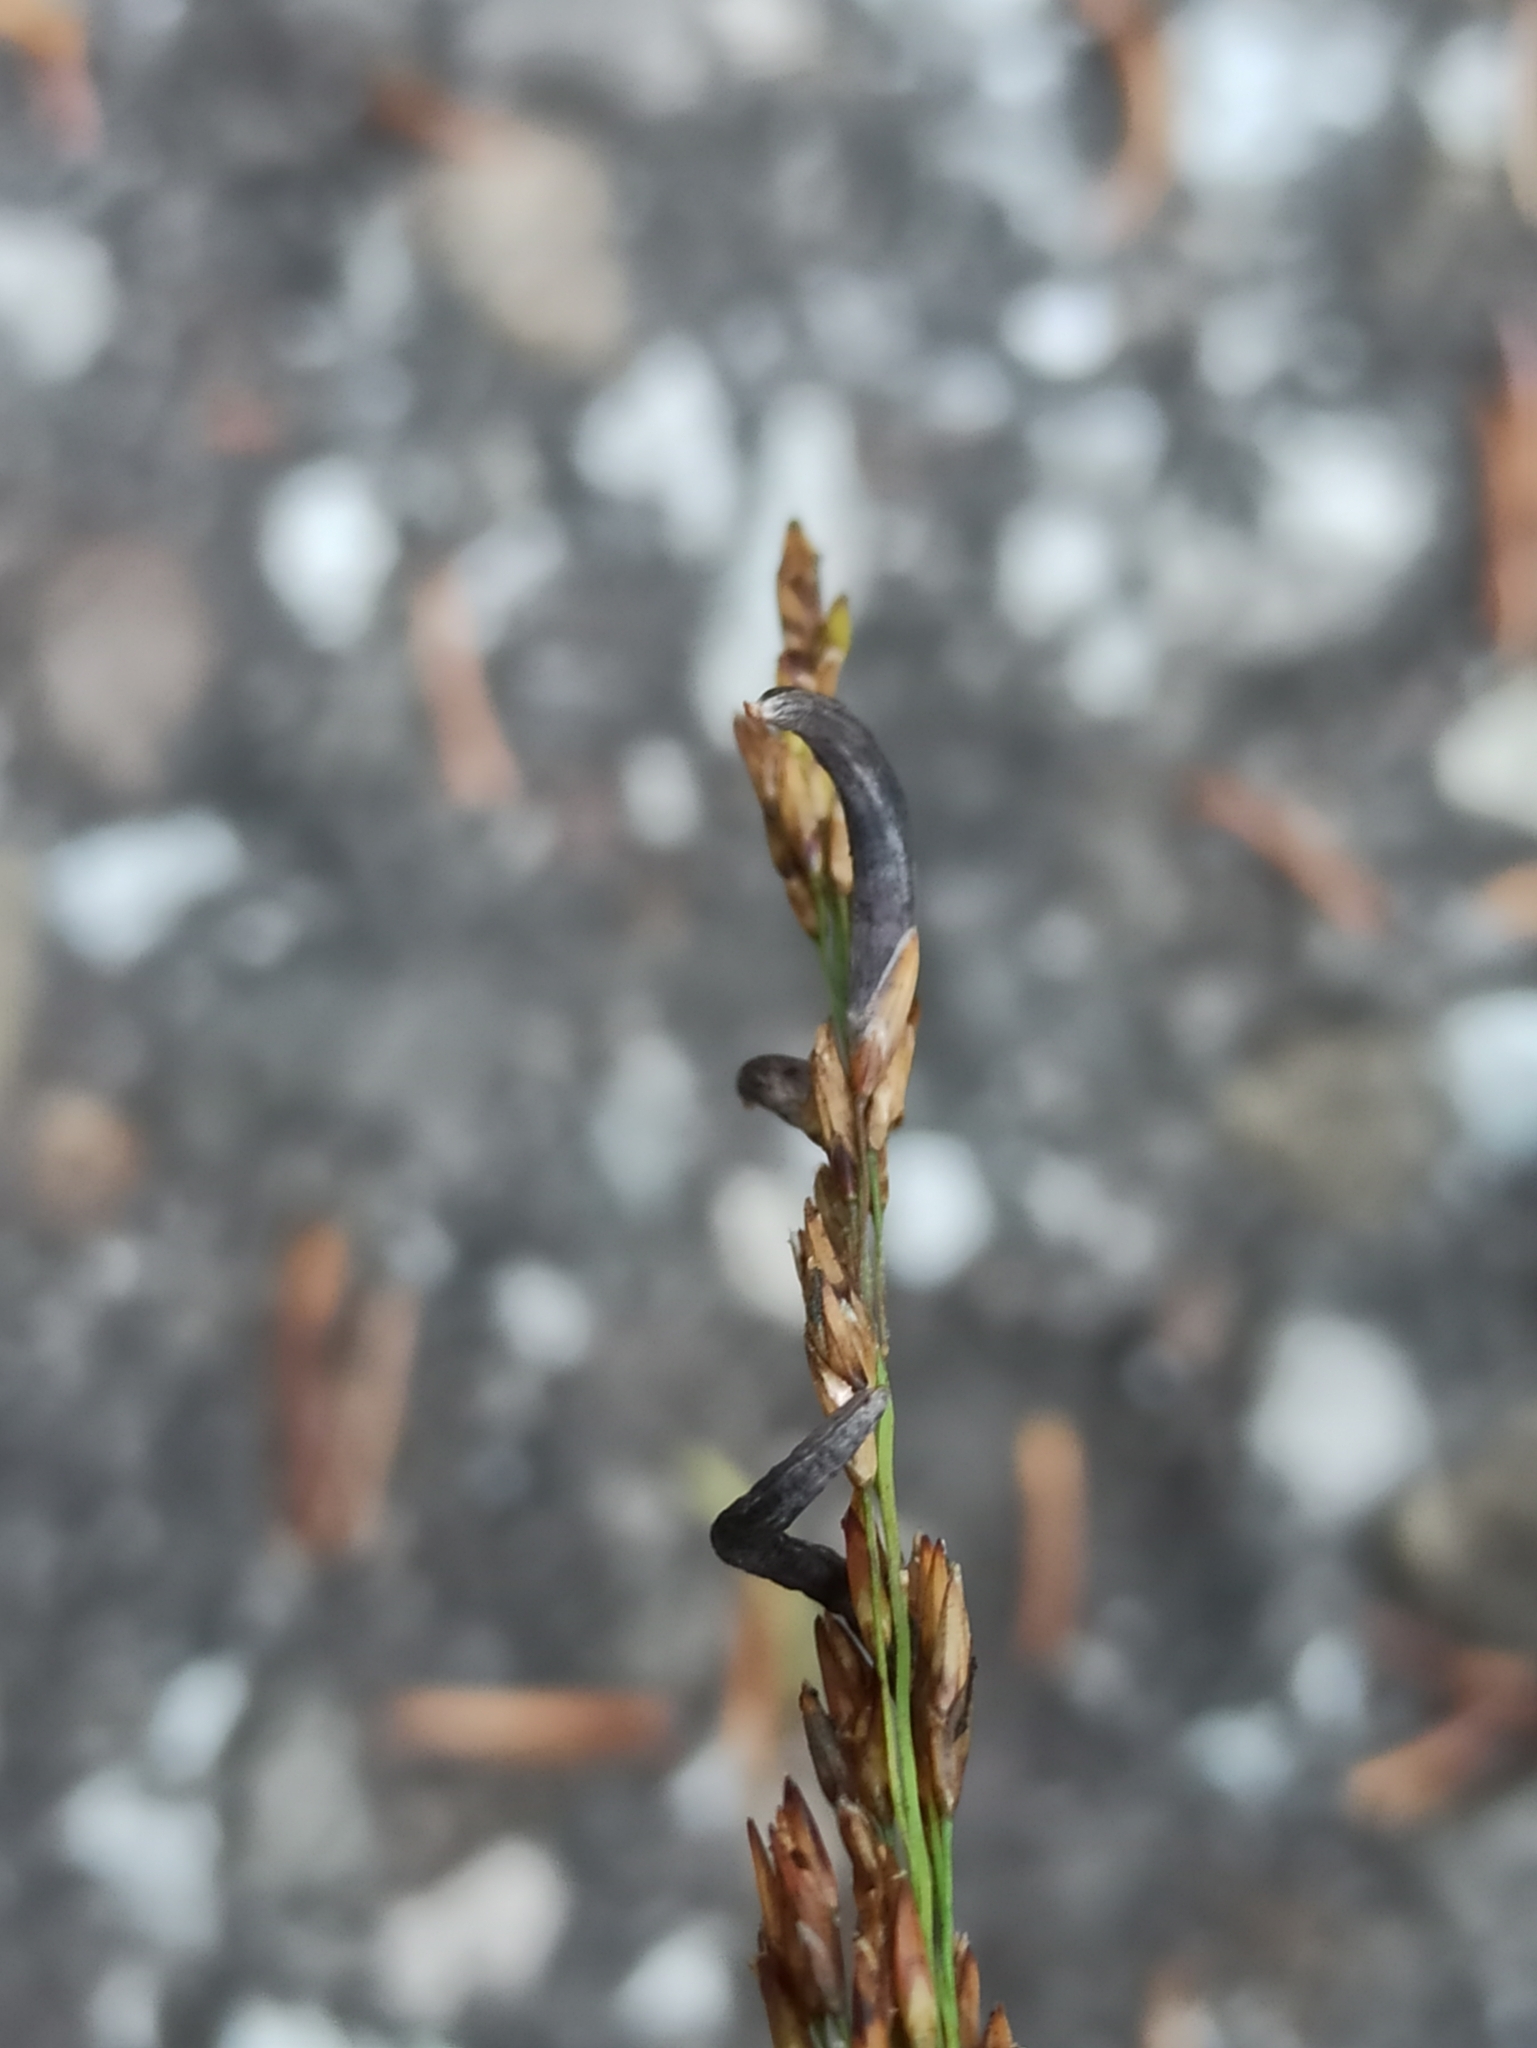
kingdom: Fungi
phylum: Ascomycota
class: Sordariomycetes
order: Hypocreales
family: Clavicipitaceae
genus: Claviceps
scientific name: Claviceps purpurea
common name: Rye ergot
